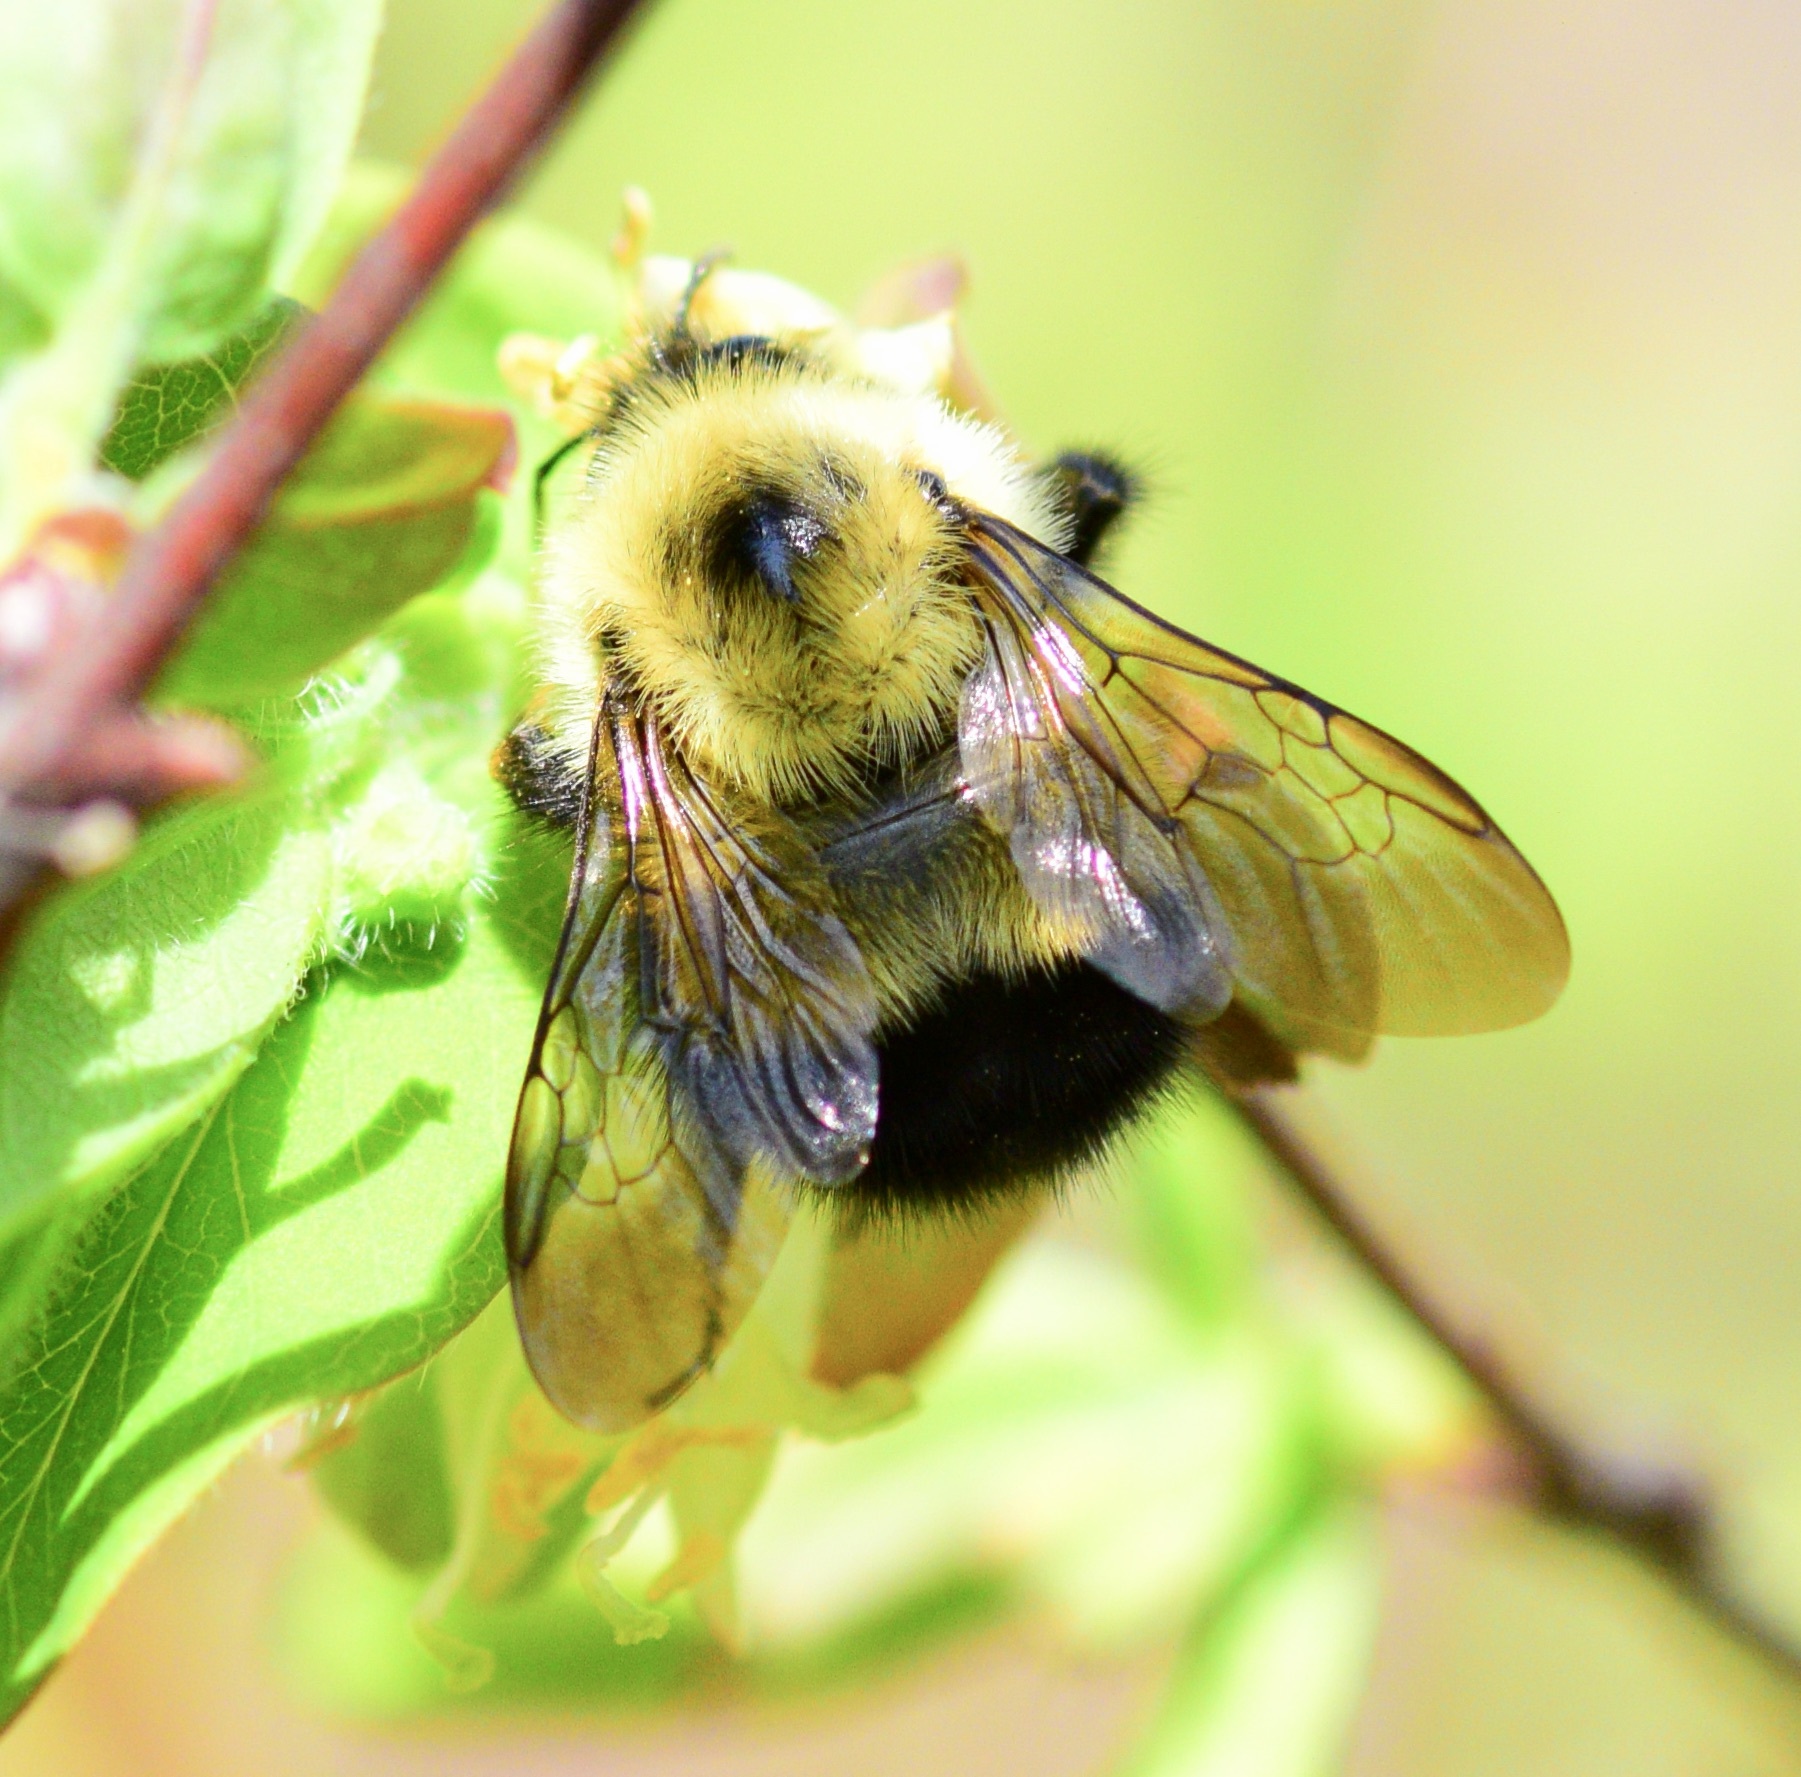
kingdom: Animalia
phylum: Arthropoda
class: Insecta
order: Hymenoptera
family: Apidae
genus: Pyrobombus
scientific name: Pyrobombus
